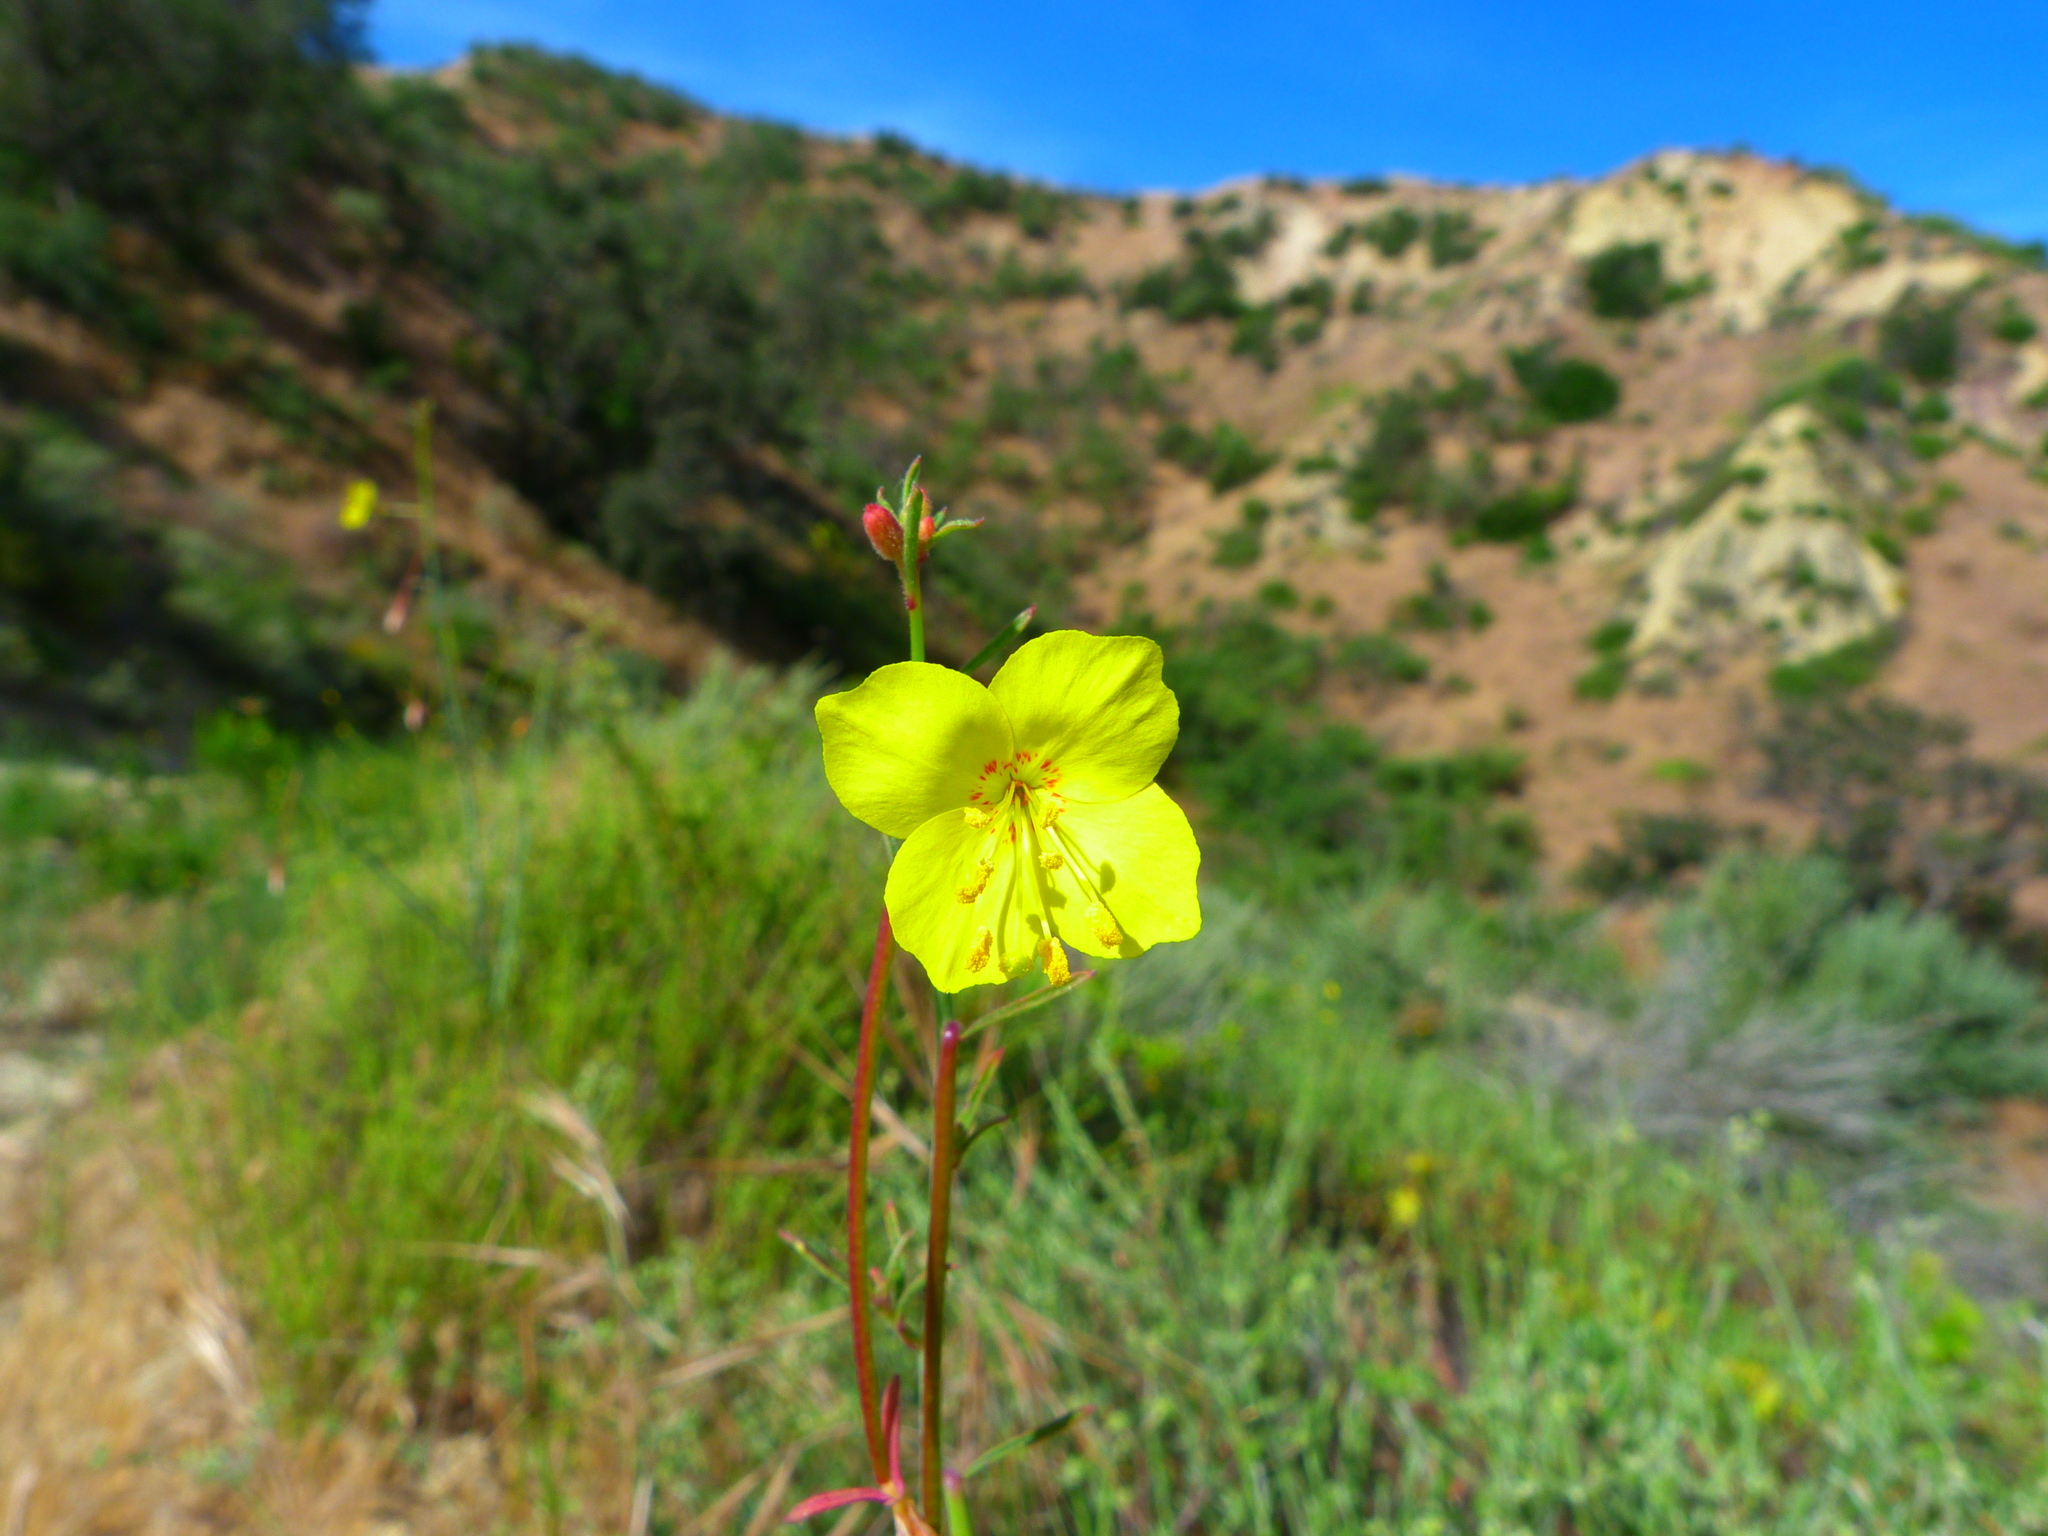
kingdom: Plantae
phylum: Tracheophyta
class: Magnoliopsida
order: Myrtales
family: Onagraceae
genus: Eulobus
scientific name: Eulobus californicus
